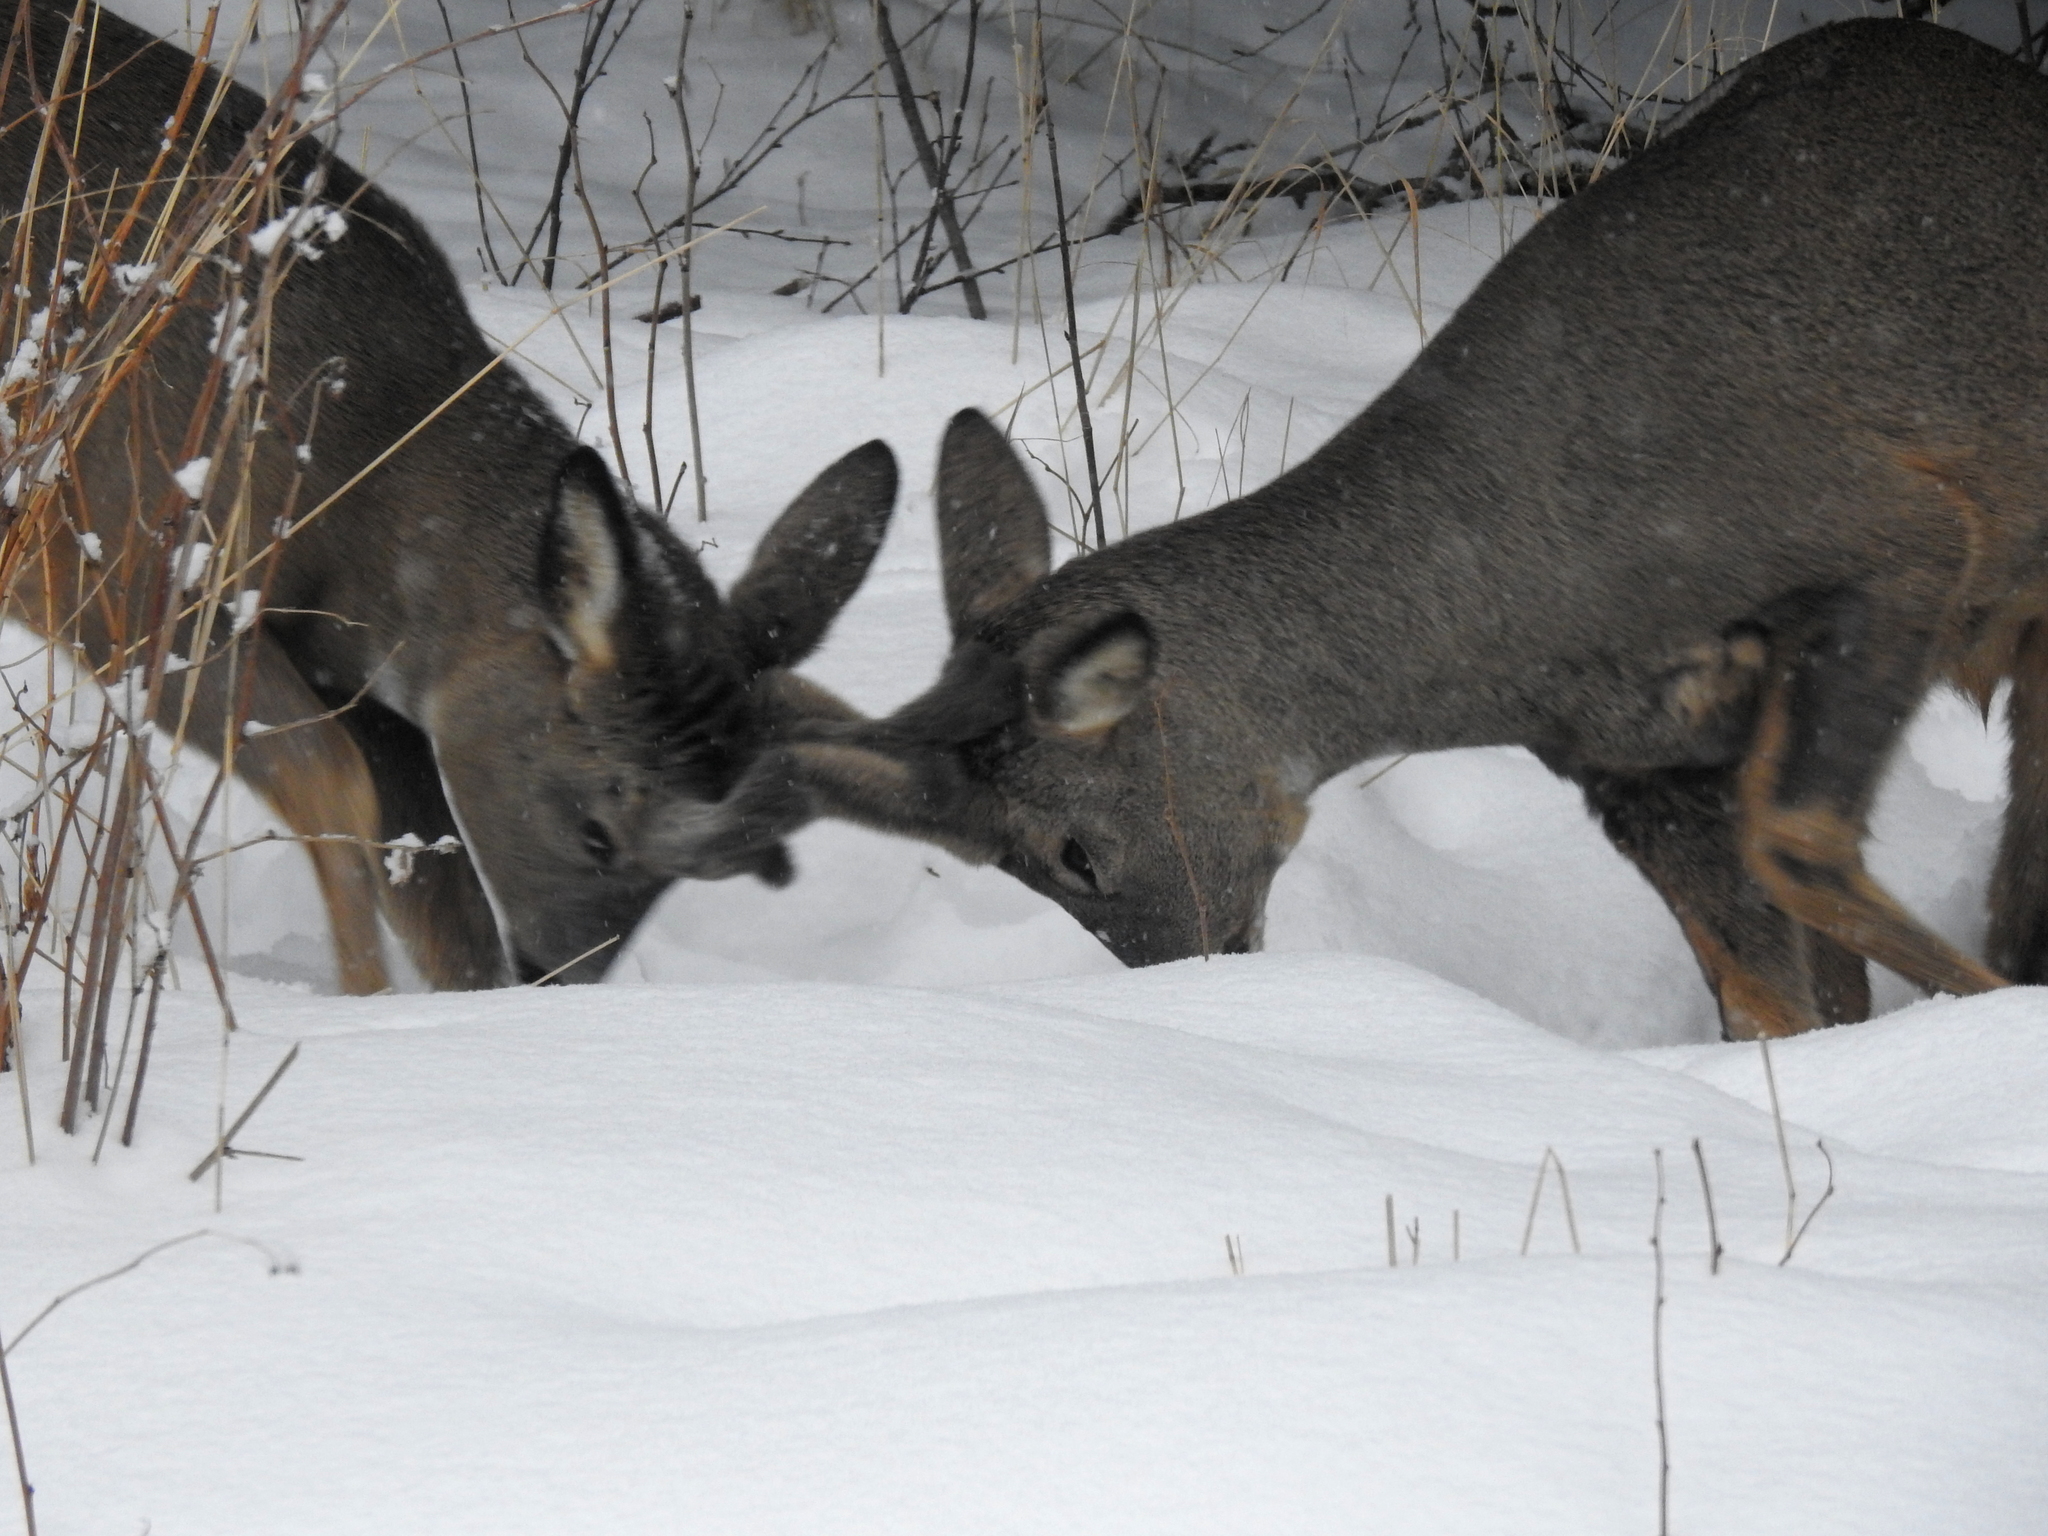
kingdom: Animalia
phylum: Chordata
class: Mammalia
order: Artiodactyla
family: Cervidae
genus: Capreolus
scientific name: Capreolus capreolus
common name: Western roe deer
